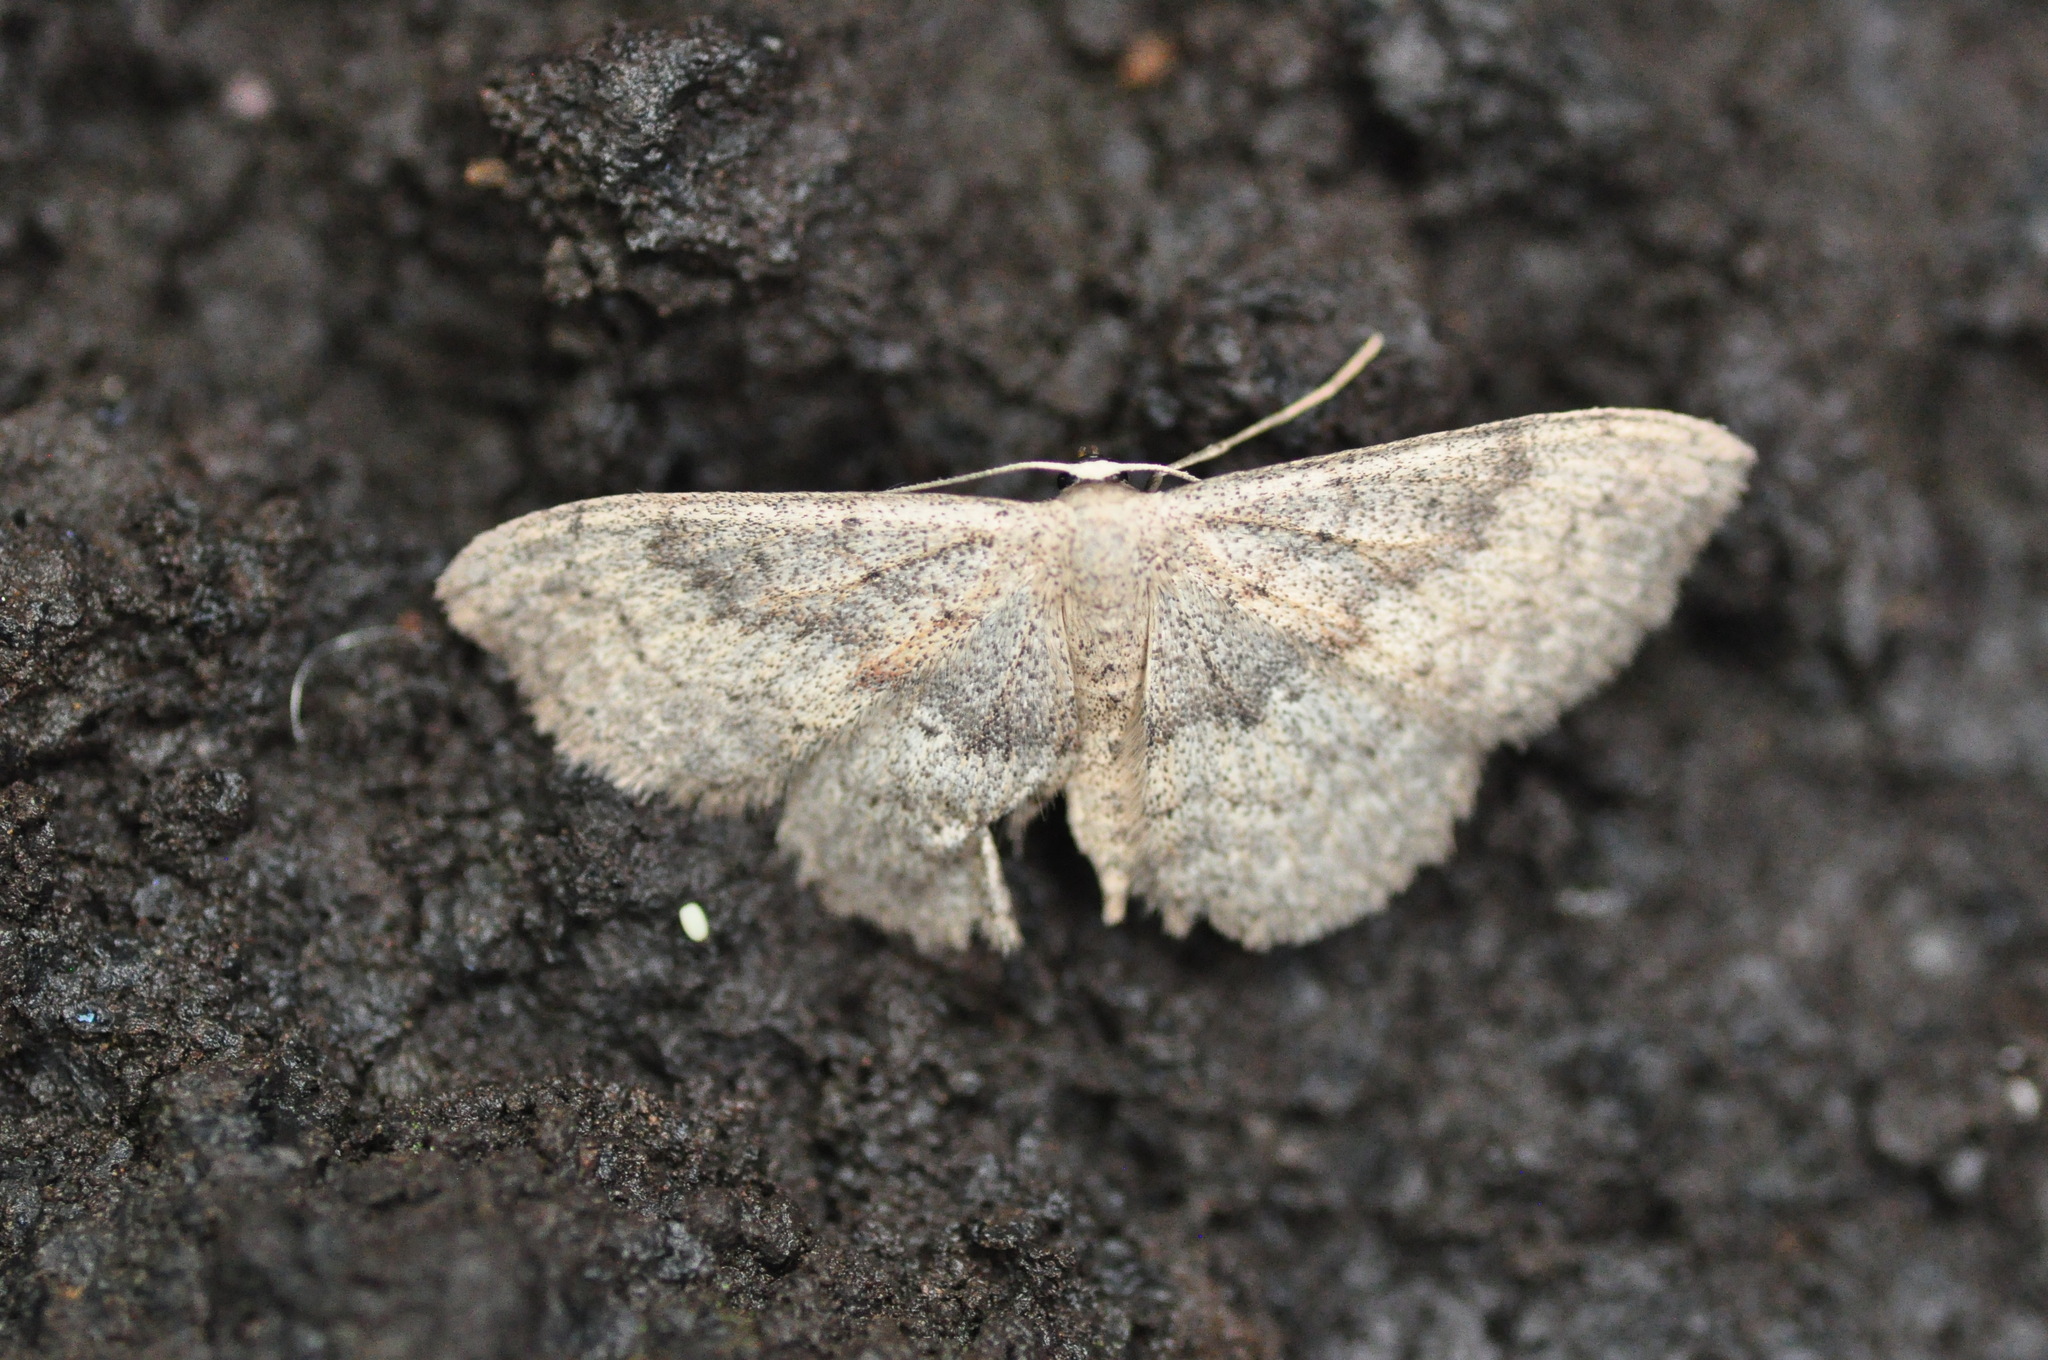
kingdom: Animalia
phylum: Arthropoda
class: Insecta
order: Lepidoptera
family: Geometridae
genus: Scopula
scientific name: Scopula guancharia
